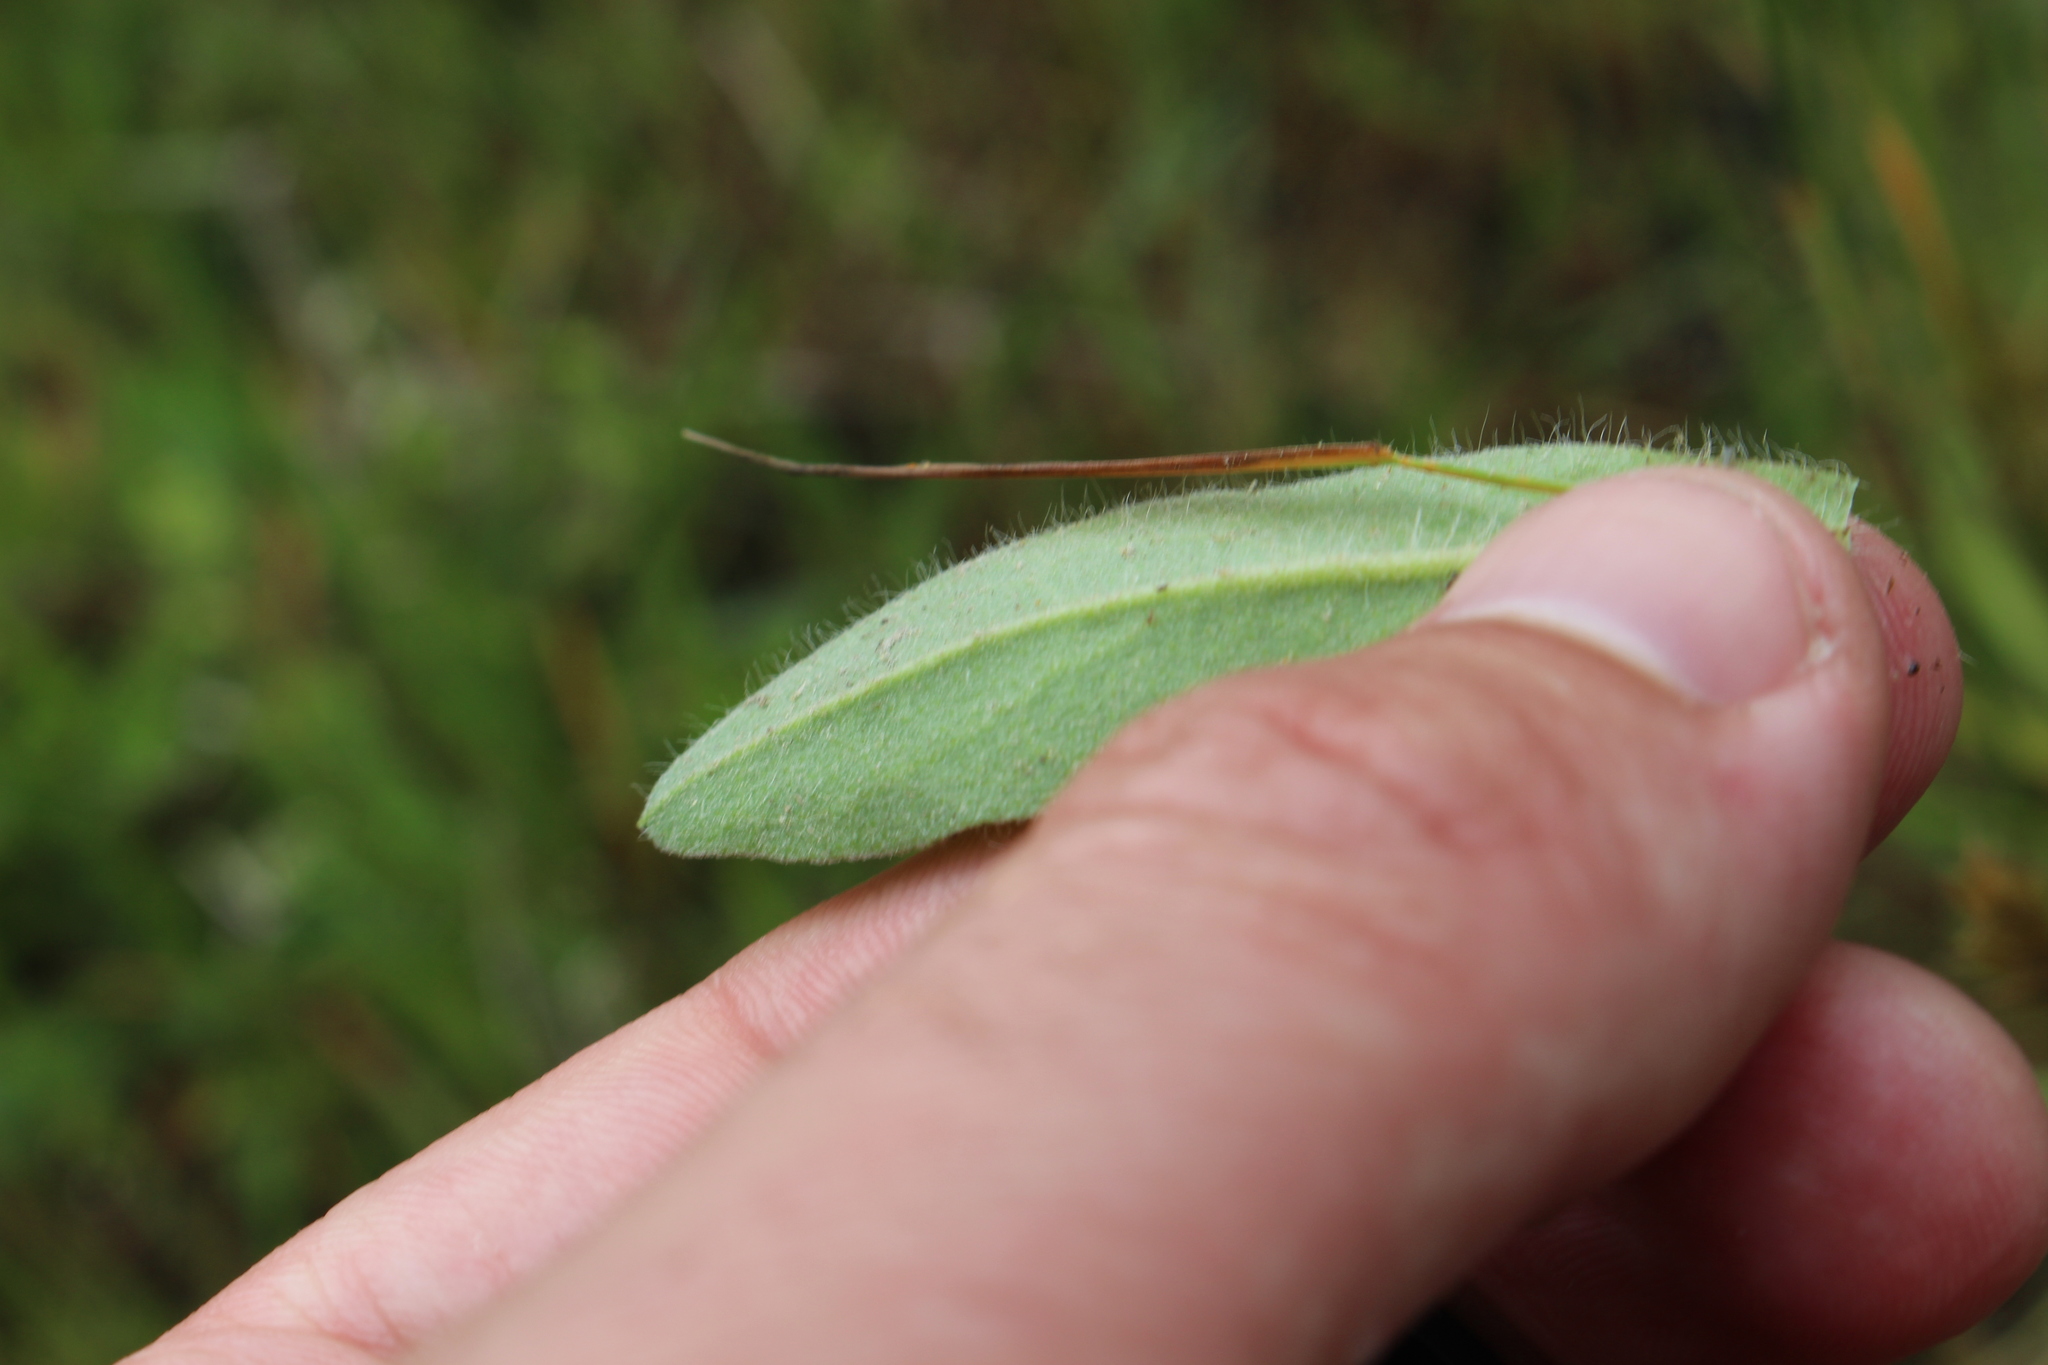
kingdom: Plantae
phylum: Tracheophyta
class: Magnoliopsida
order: Asterales
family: Asteraceae
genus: Pilosella
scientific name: Pilosella aurantiaca
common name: Fox-and-cubs
